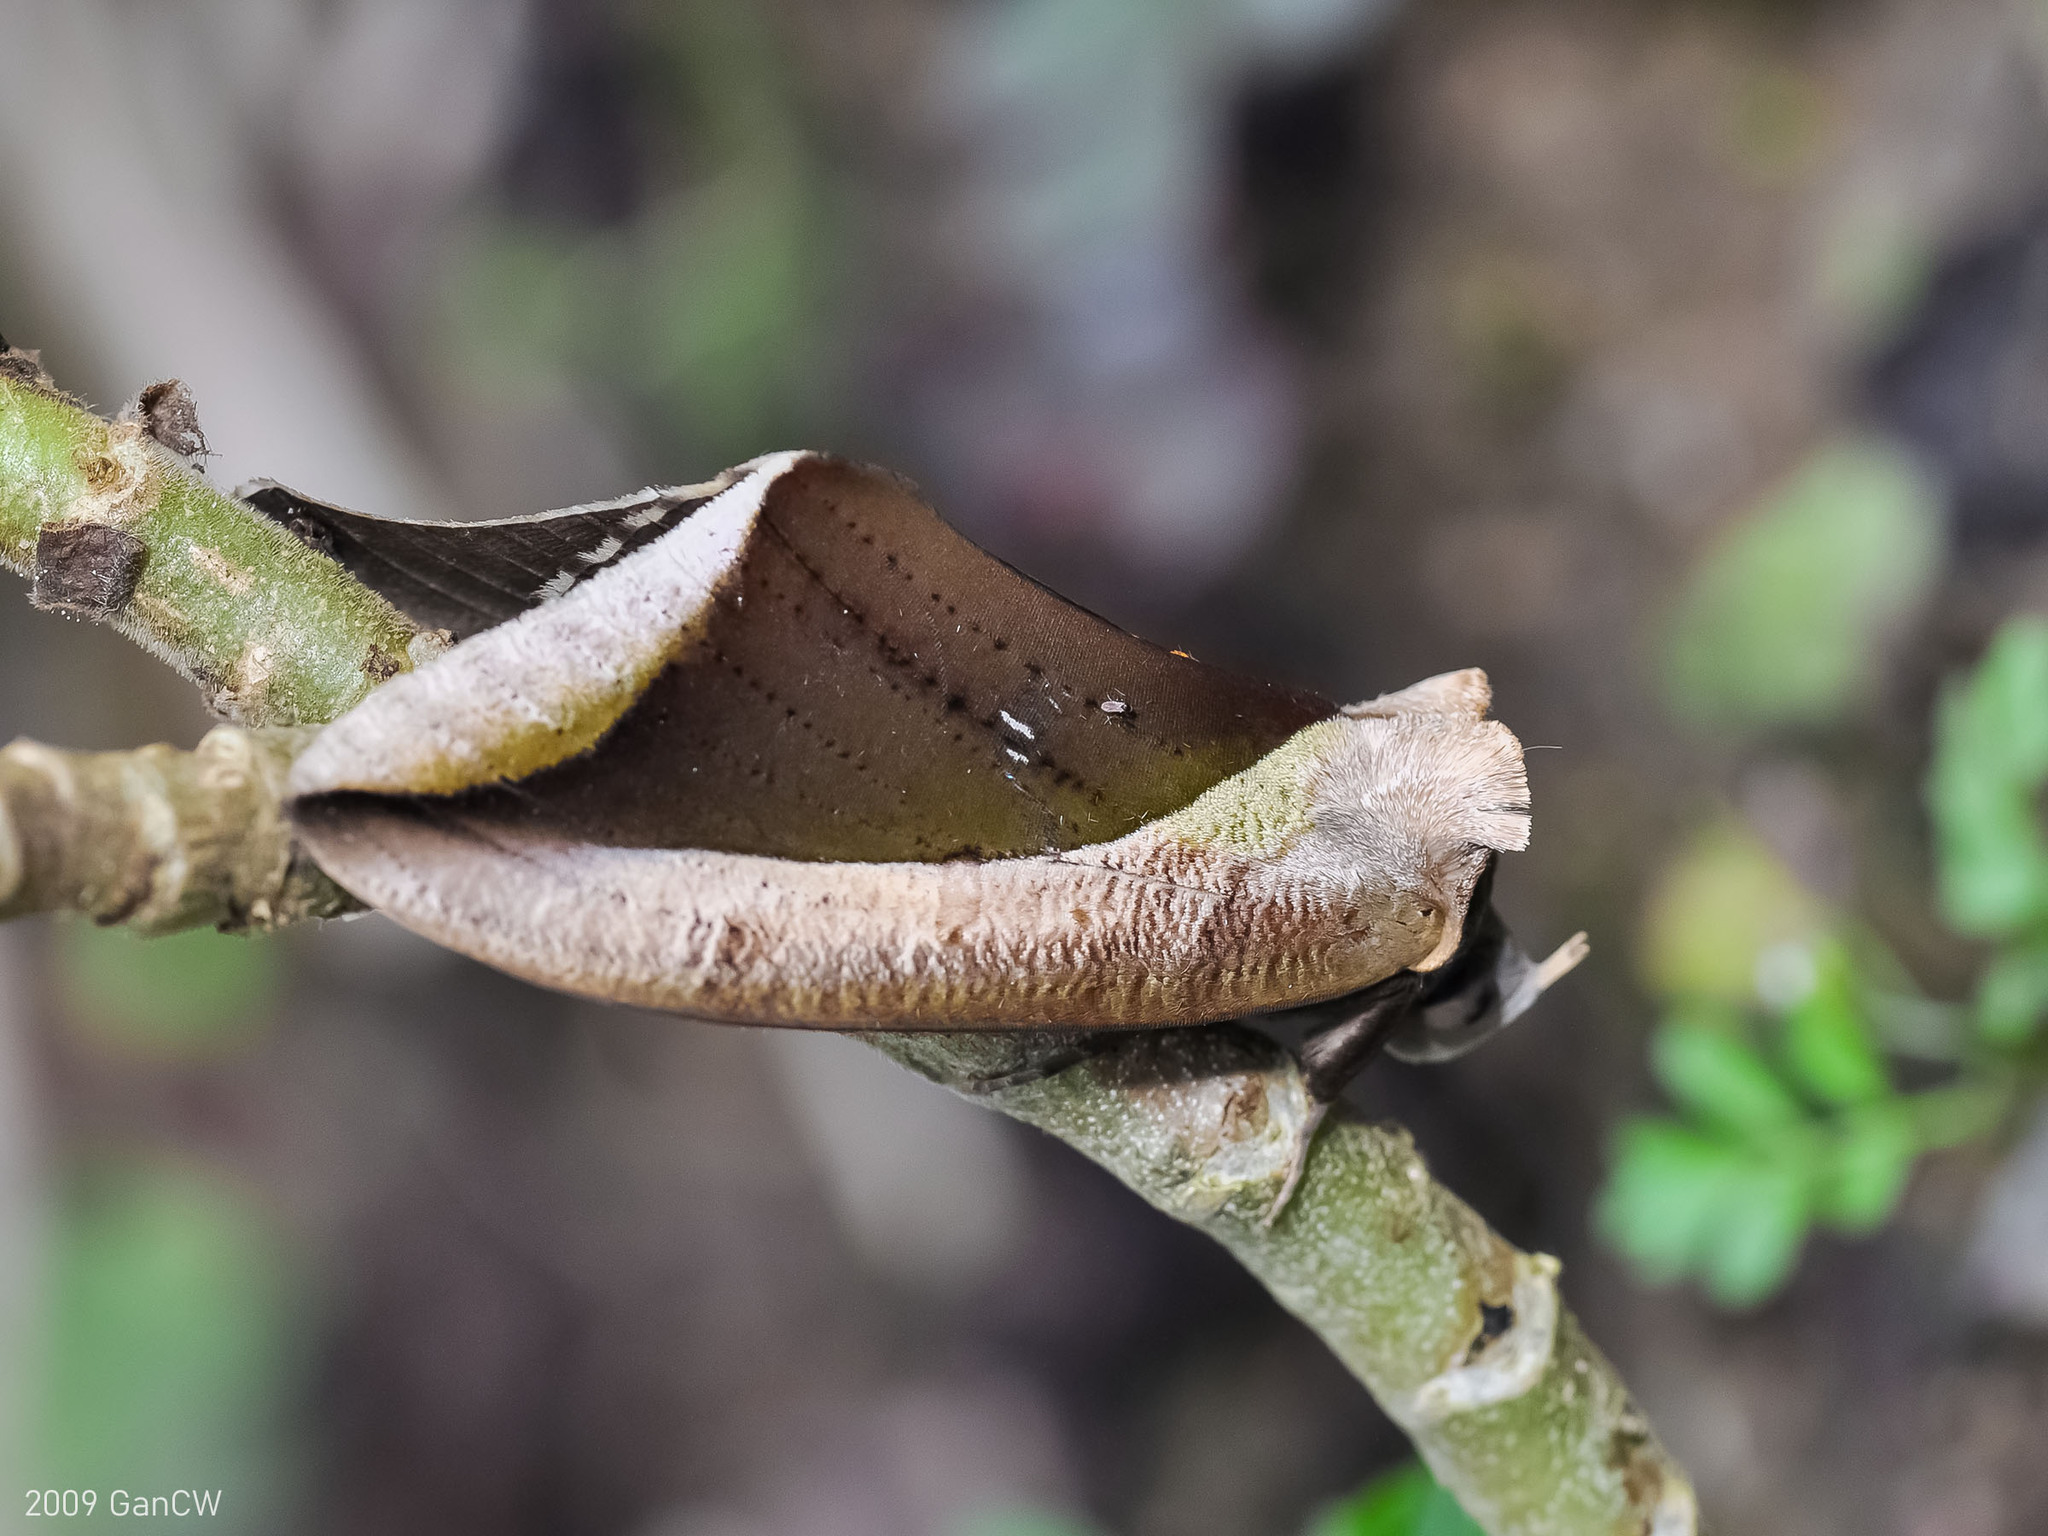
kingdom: Animalia
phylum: Arthropoda
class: Insecta
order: Lepidoptera
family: Erebidae
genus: Eudocima
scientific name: Eudocima dividens
